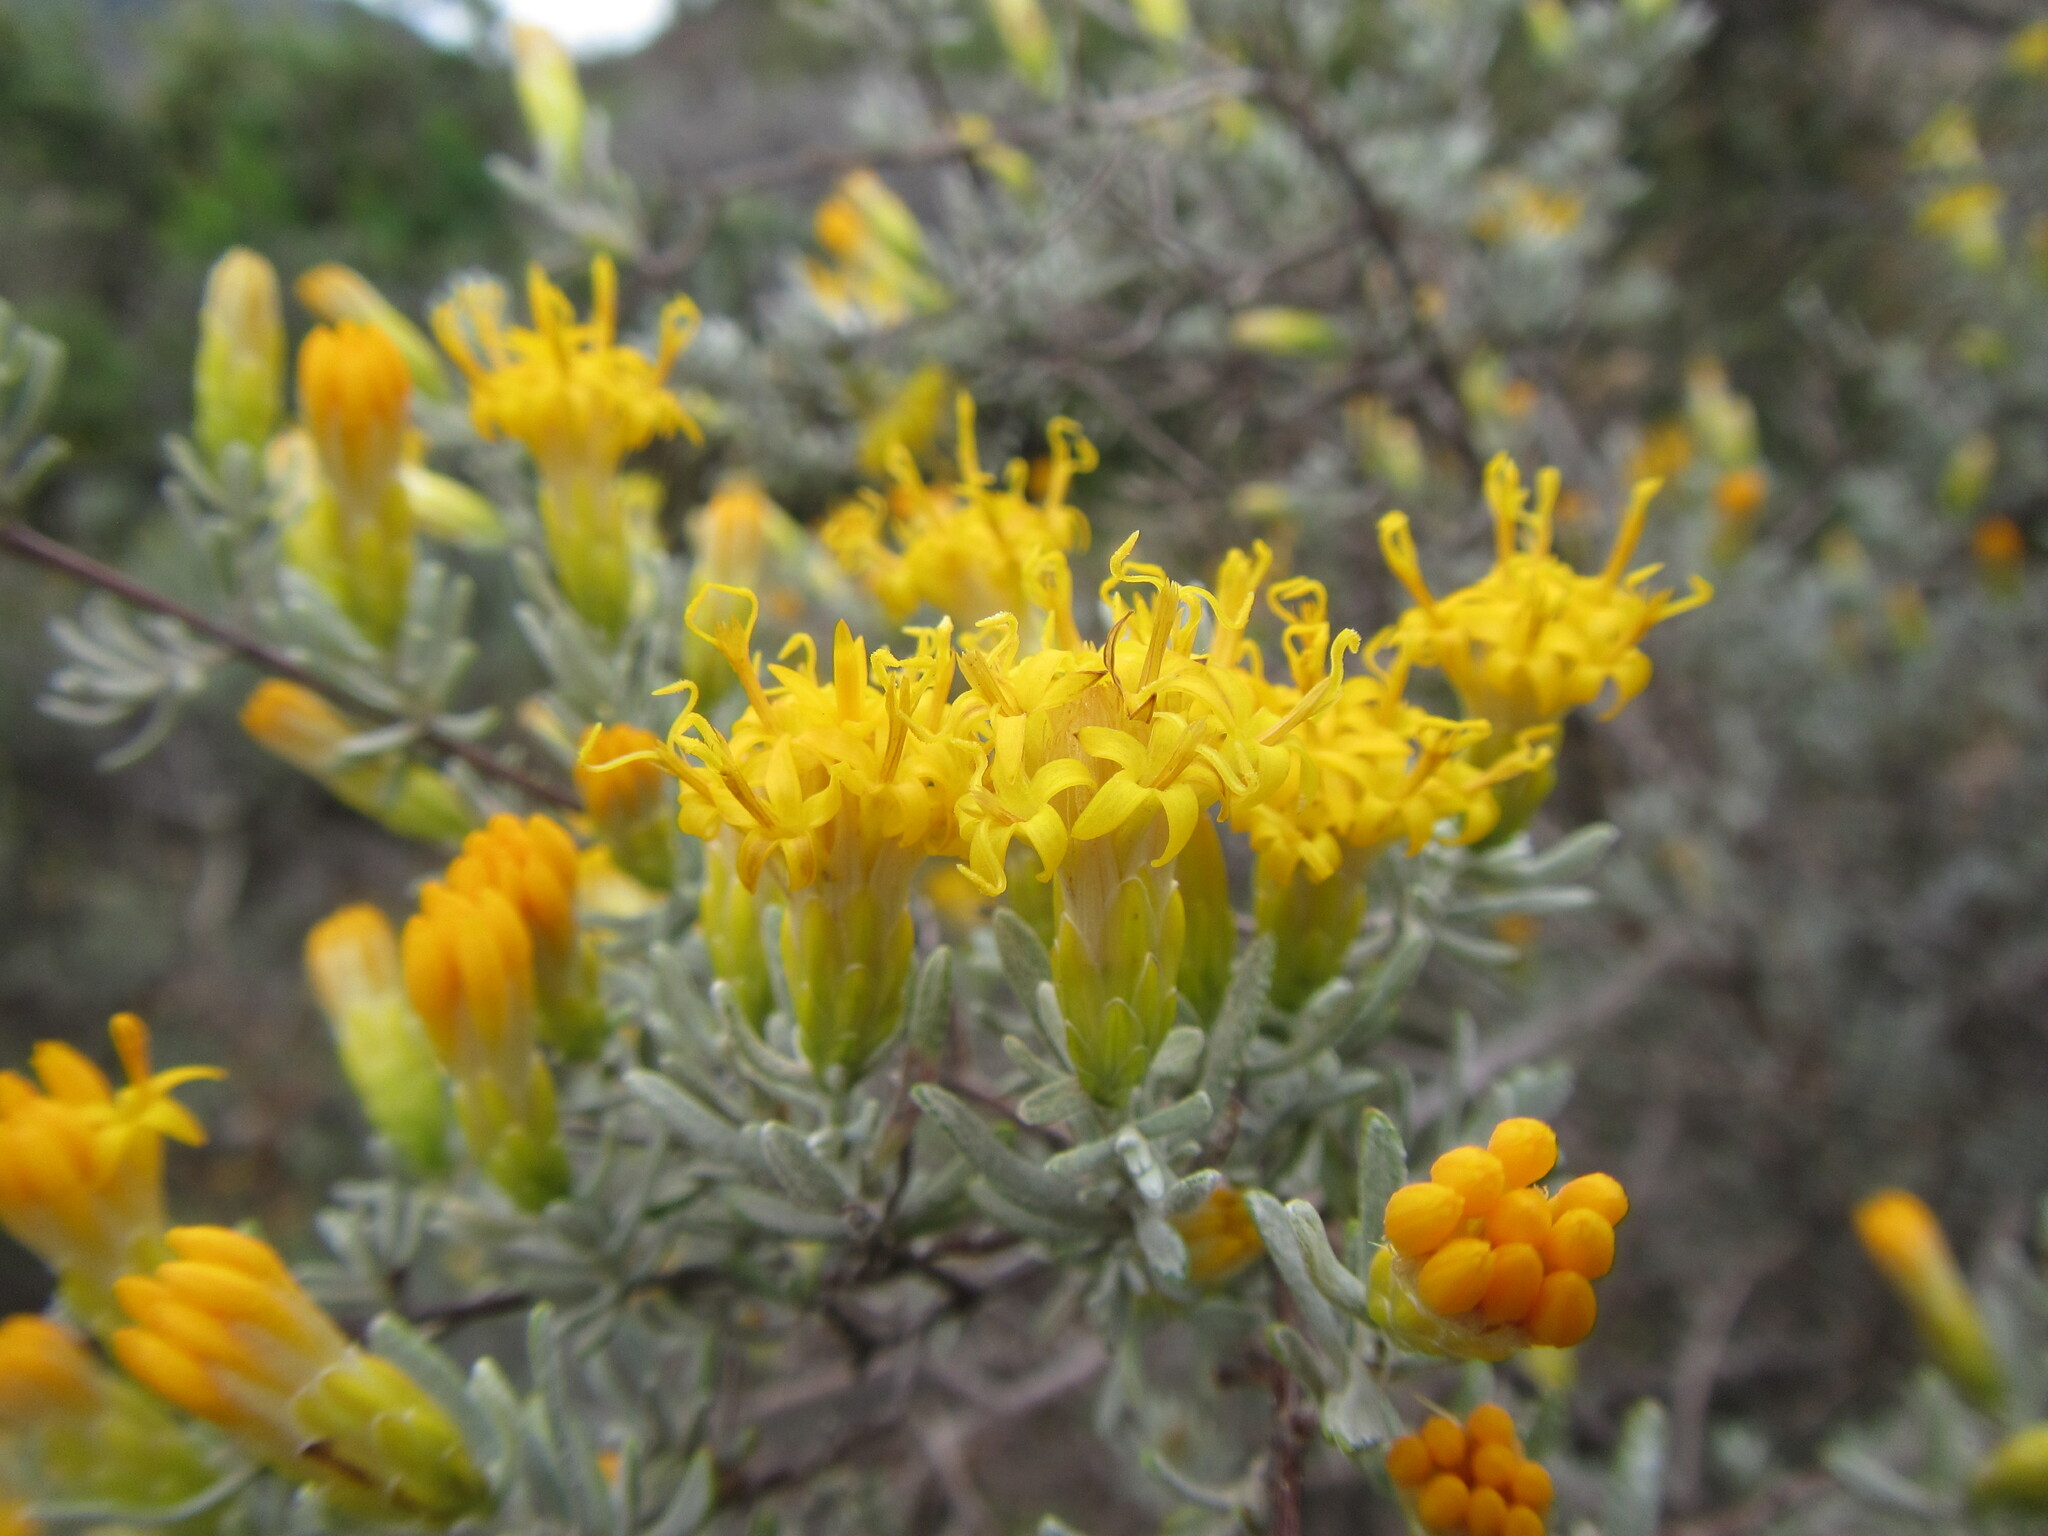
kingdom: Plantae
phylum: Tracheophyta
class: Magnoliopsida
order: Asterales
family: Asteraceae
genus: Pteronia
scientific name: Pteronia incana
